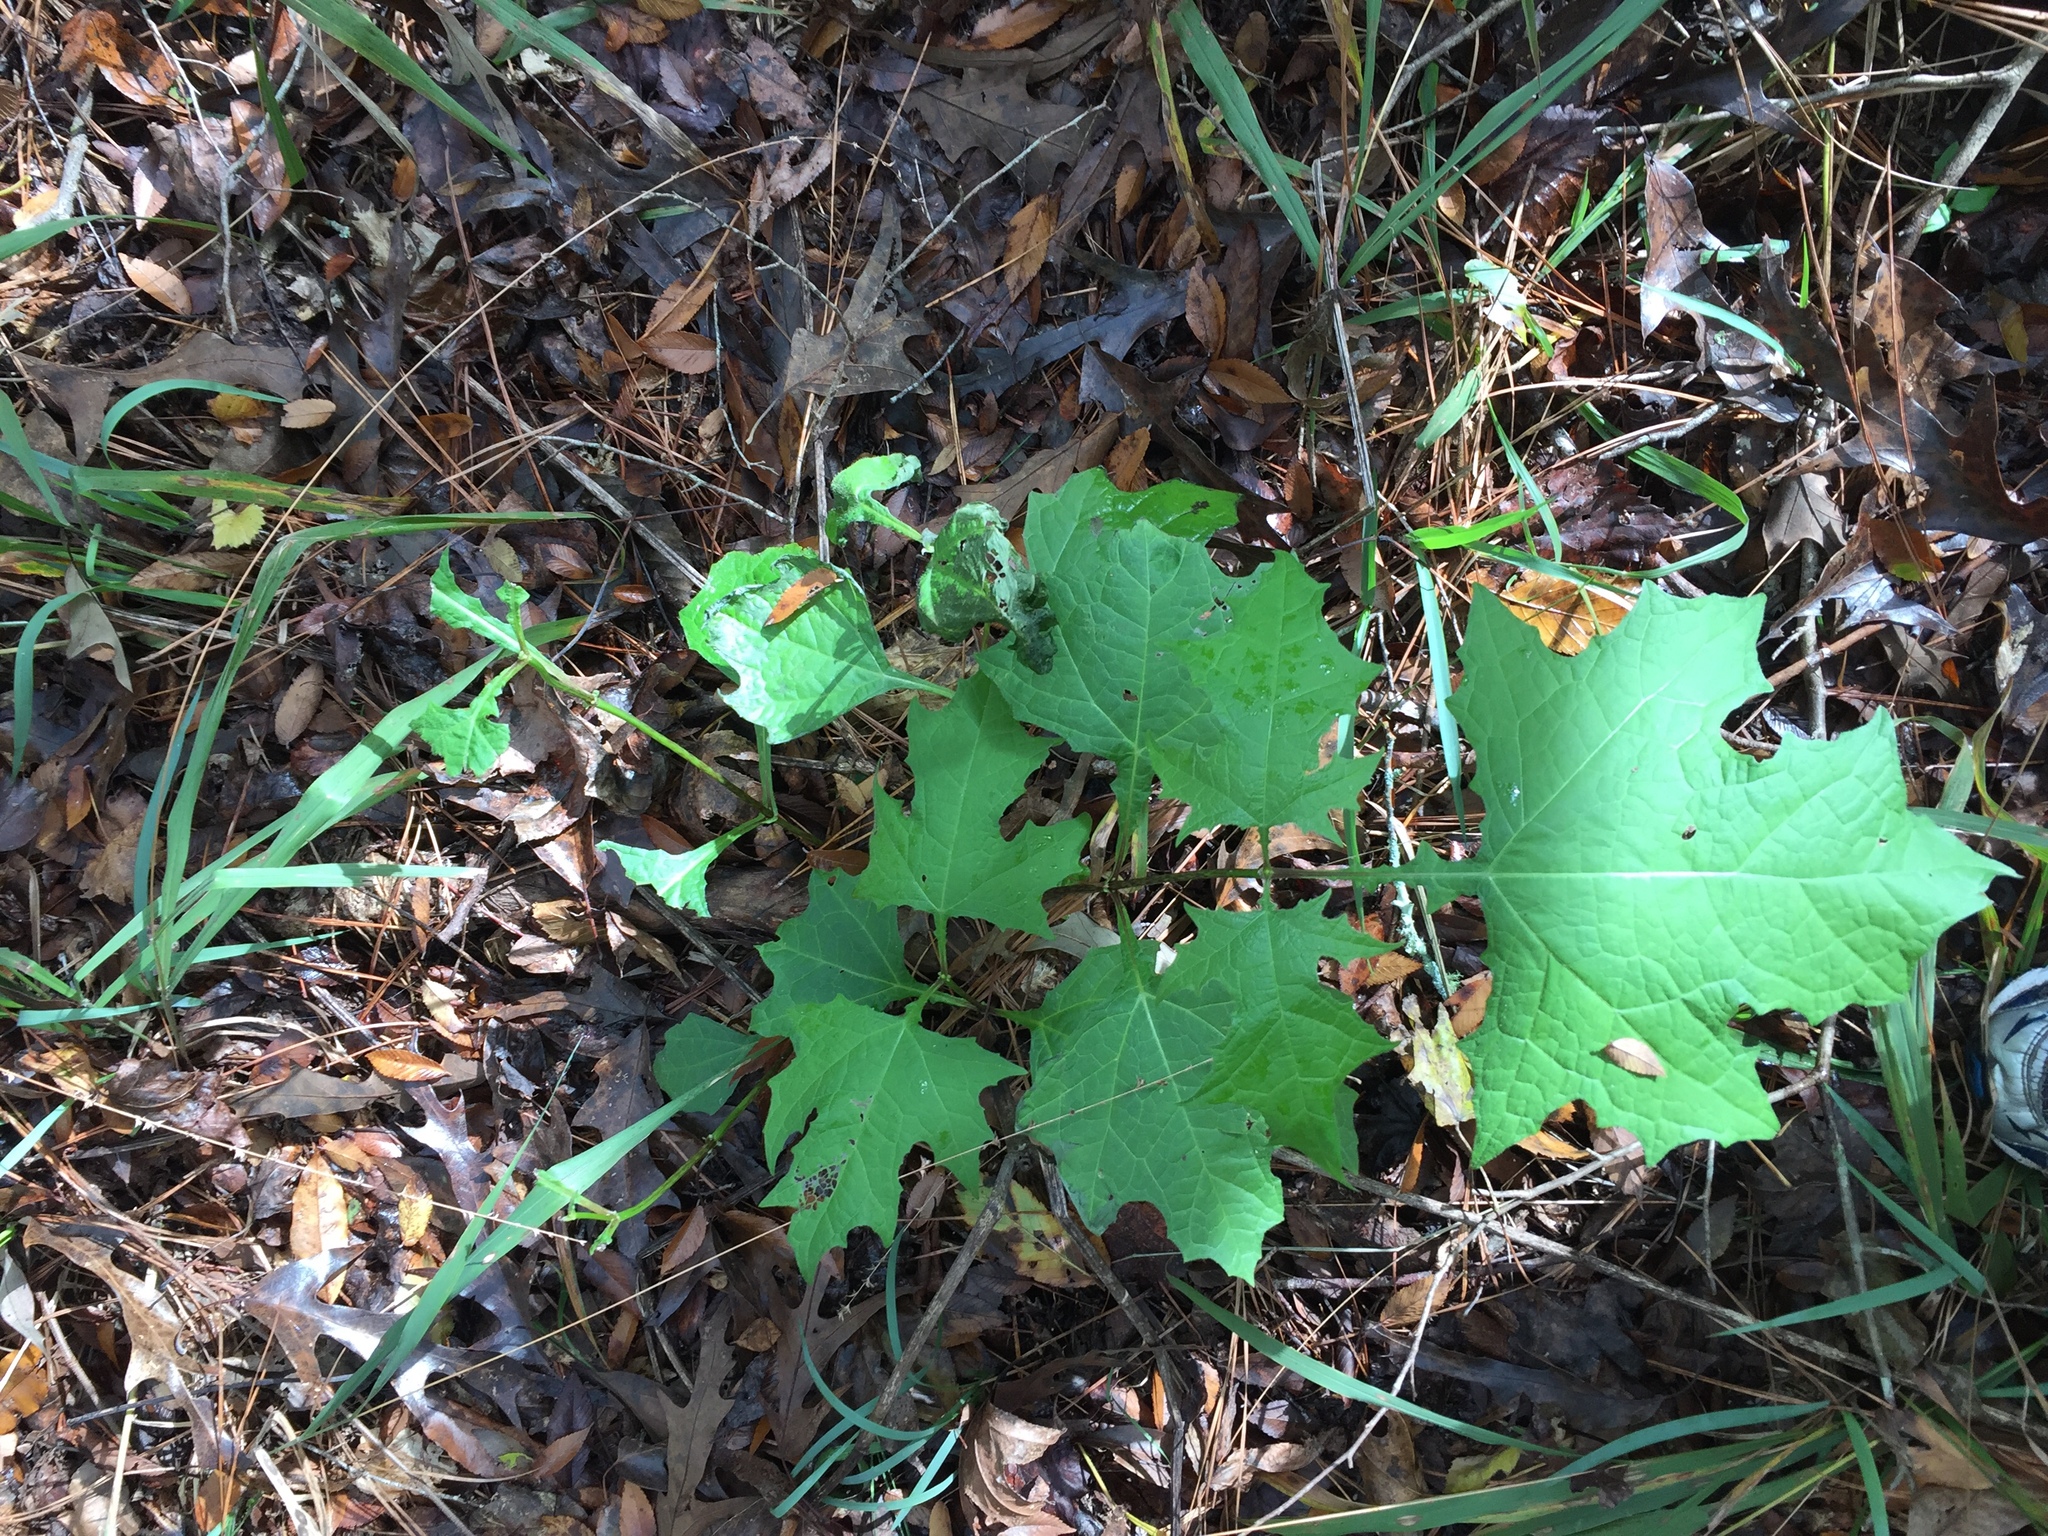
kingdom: Plantae
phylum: Tracheophyta
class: Magnoliopsida
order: Asterales
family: Asteraceae
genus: Smallanthus
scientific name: Smallanthus uvedalia
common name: Bear's-foot
